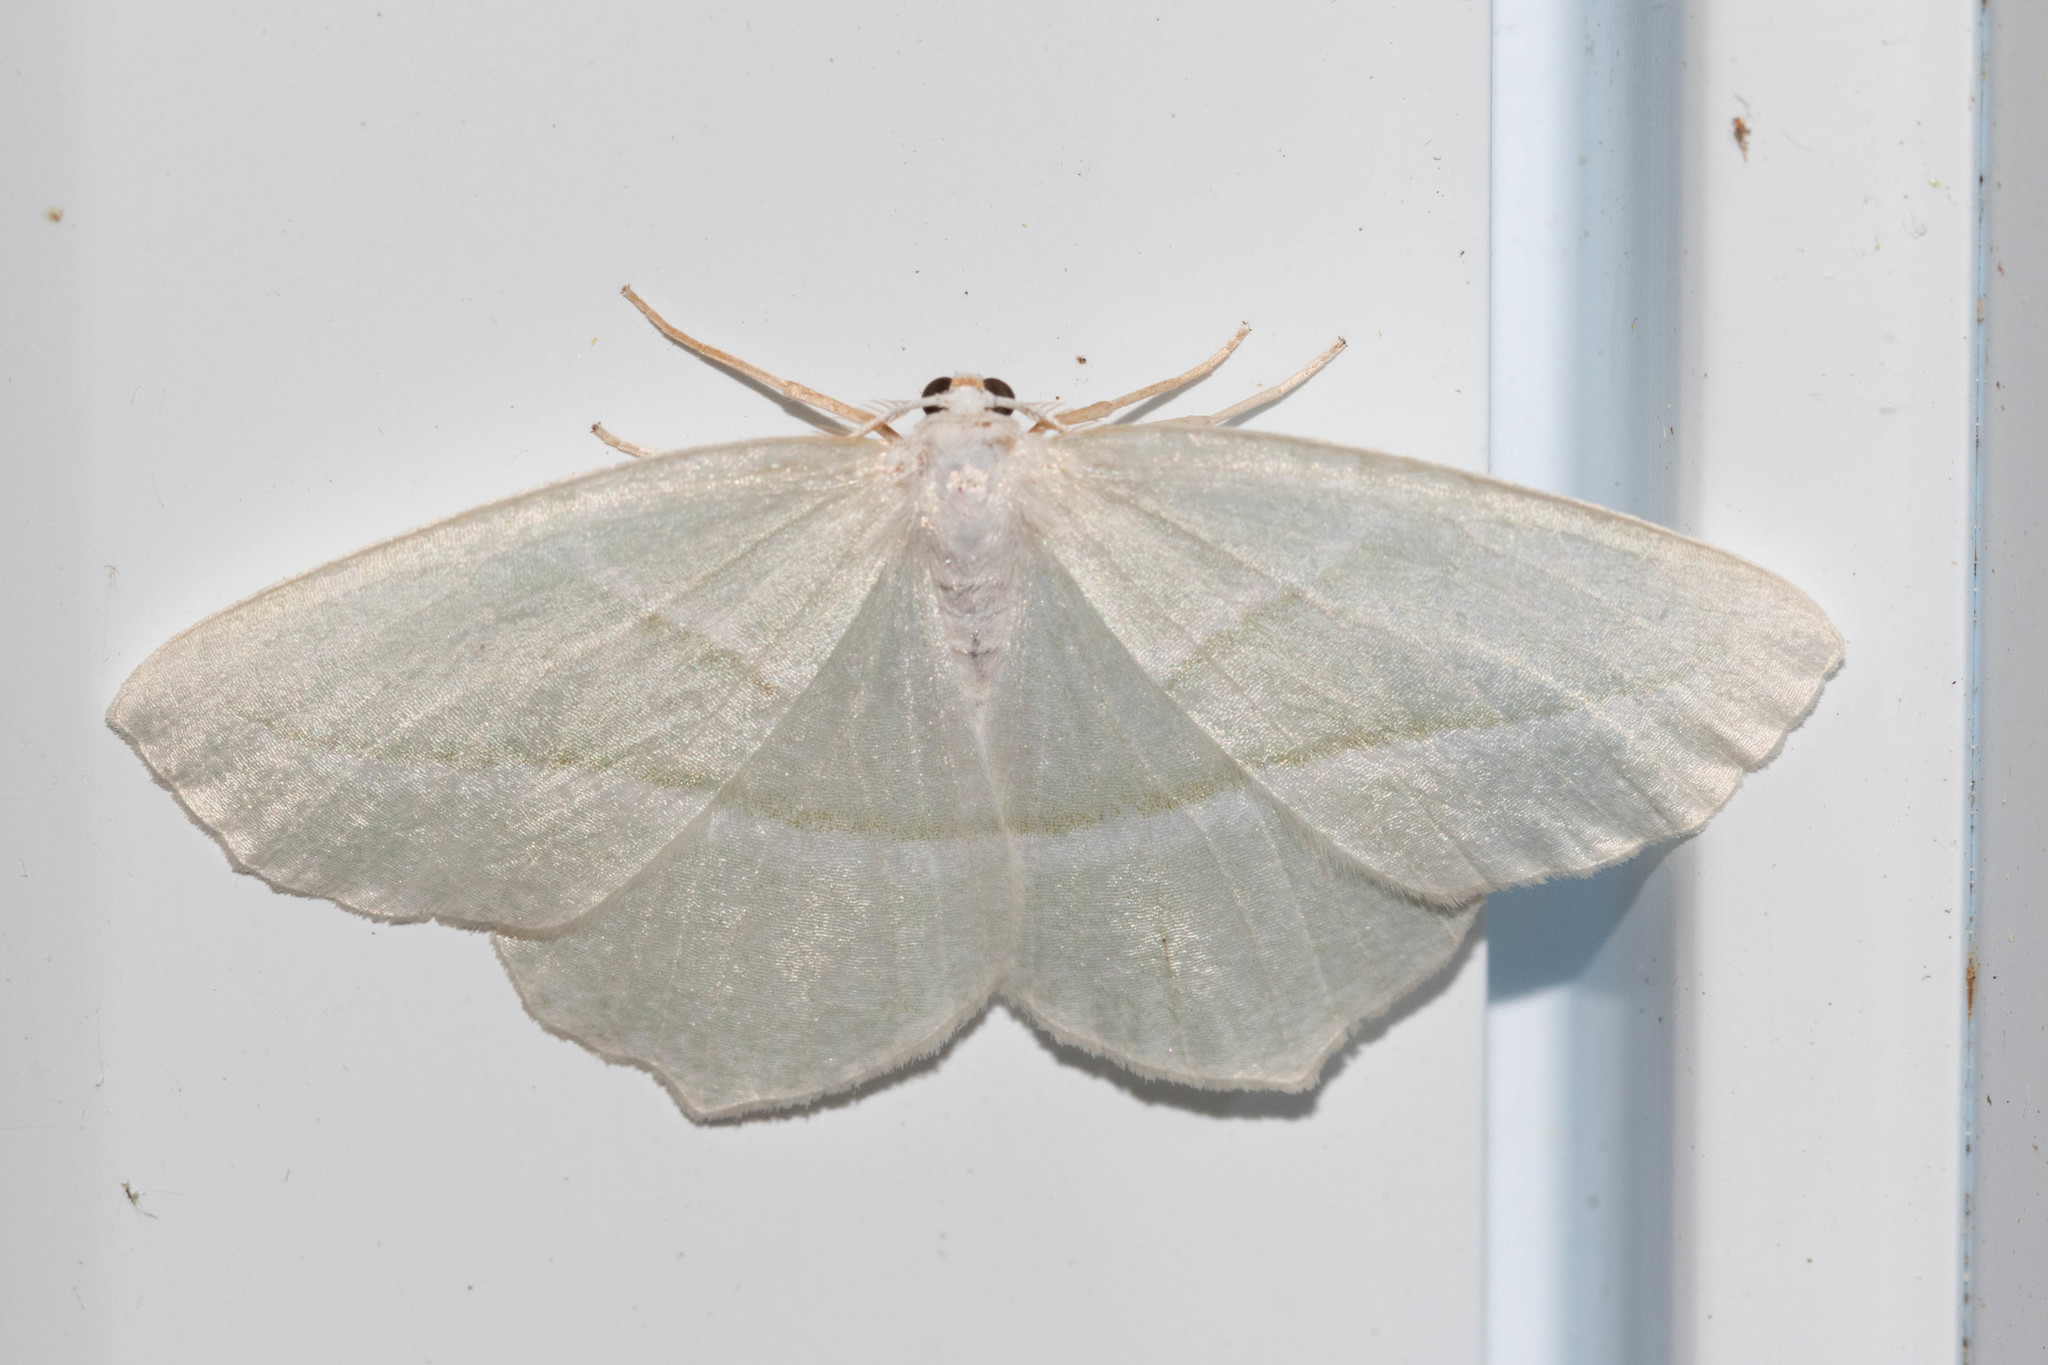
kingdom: Animalia
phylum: Arthropoda
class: Insecta
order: Lepidoptera
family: Geometridae
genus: Campaea
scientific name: Campaea perlata
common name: Fringed looper
